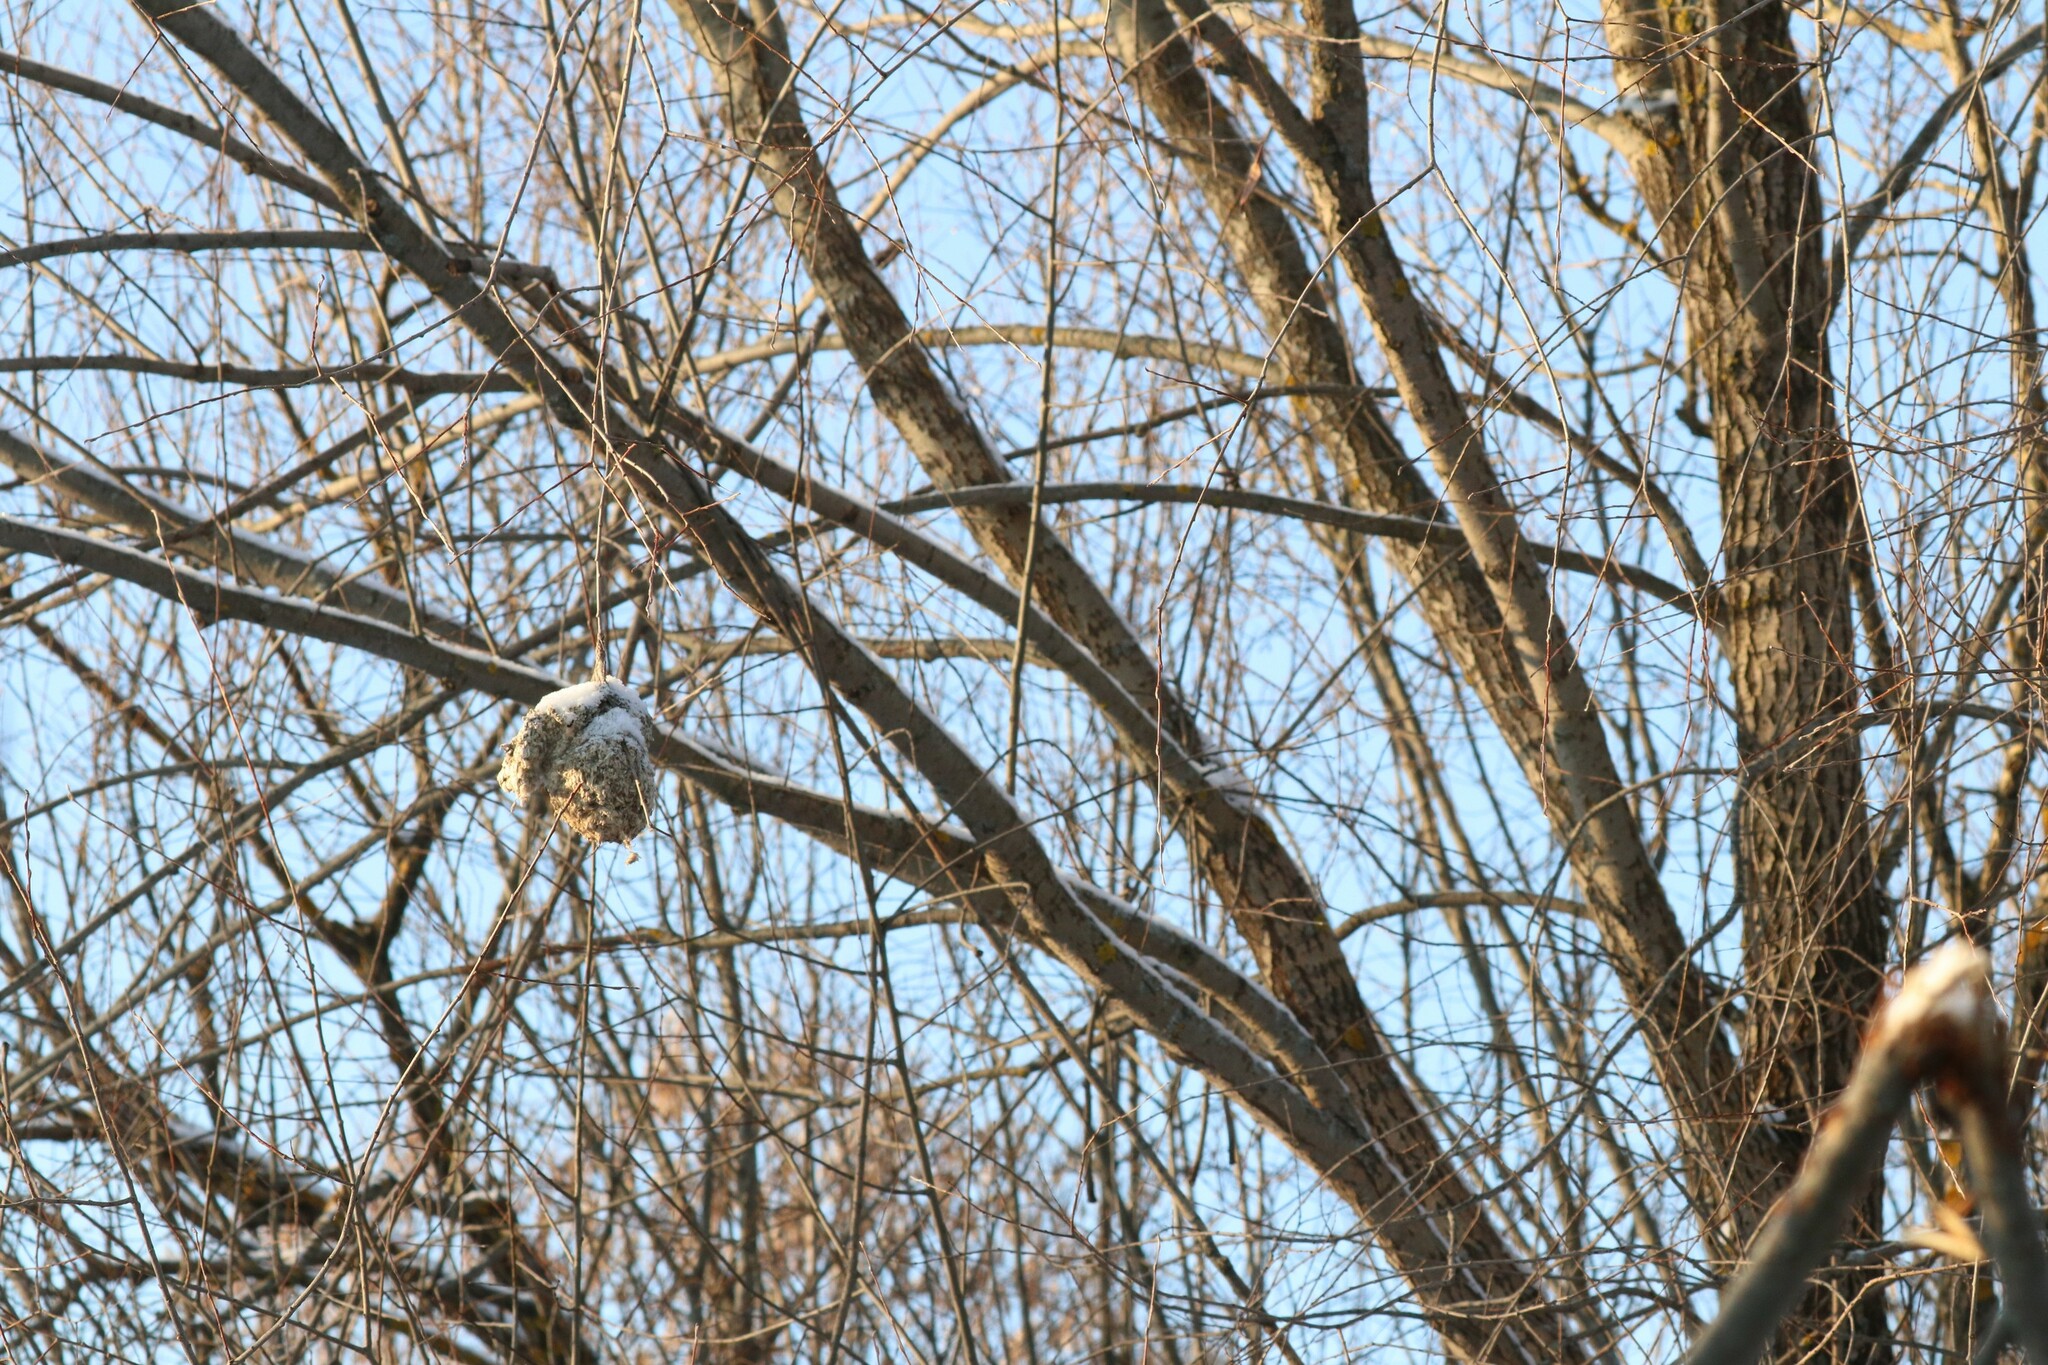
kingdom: Animalia
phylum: Chordata
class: Aves
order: Passeriformes
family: Remizidae
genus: Remiz
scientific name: Remiz pendulinus
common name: Eurasian penduline tit
